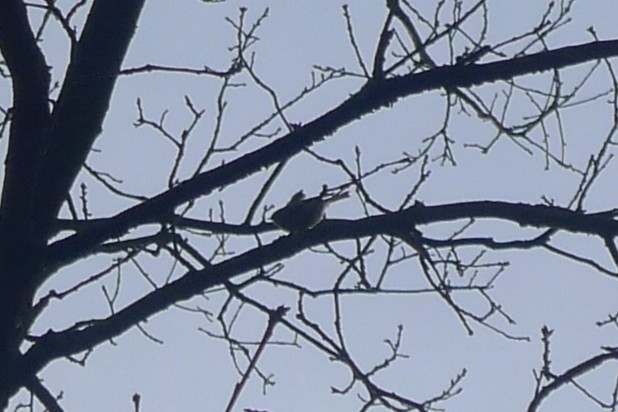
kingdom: Animalia
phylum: Chordata
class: Aves
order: Passeriformes
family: Regulidae
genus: Regulus
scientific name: Regulus regulus
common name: Goldcrest
